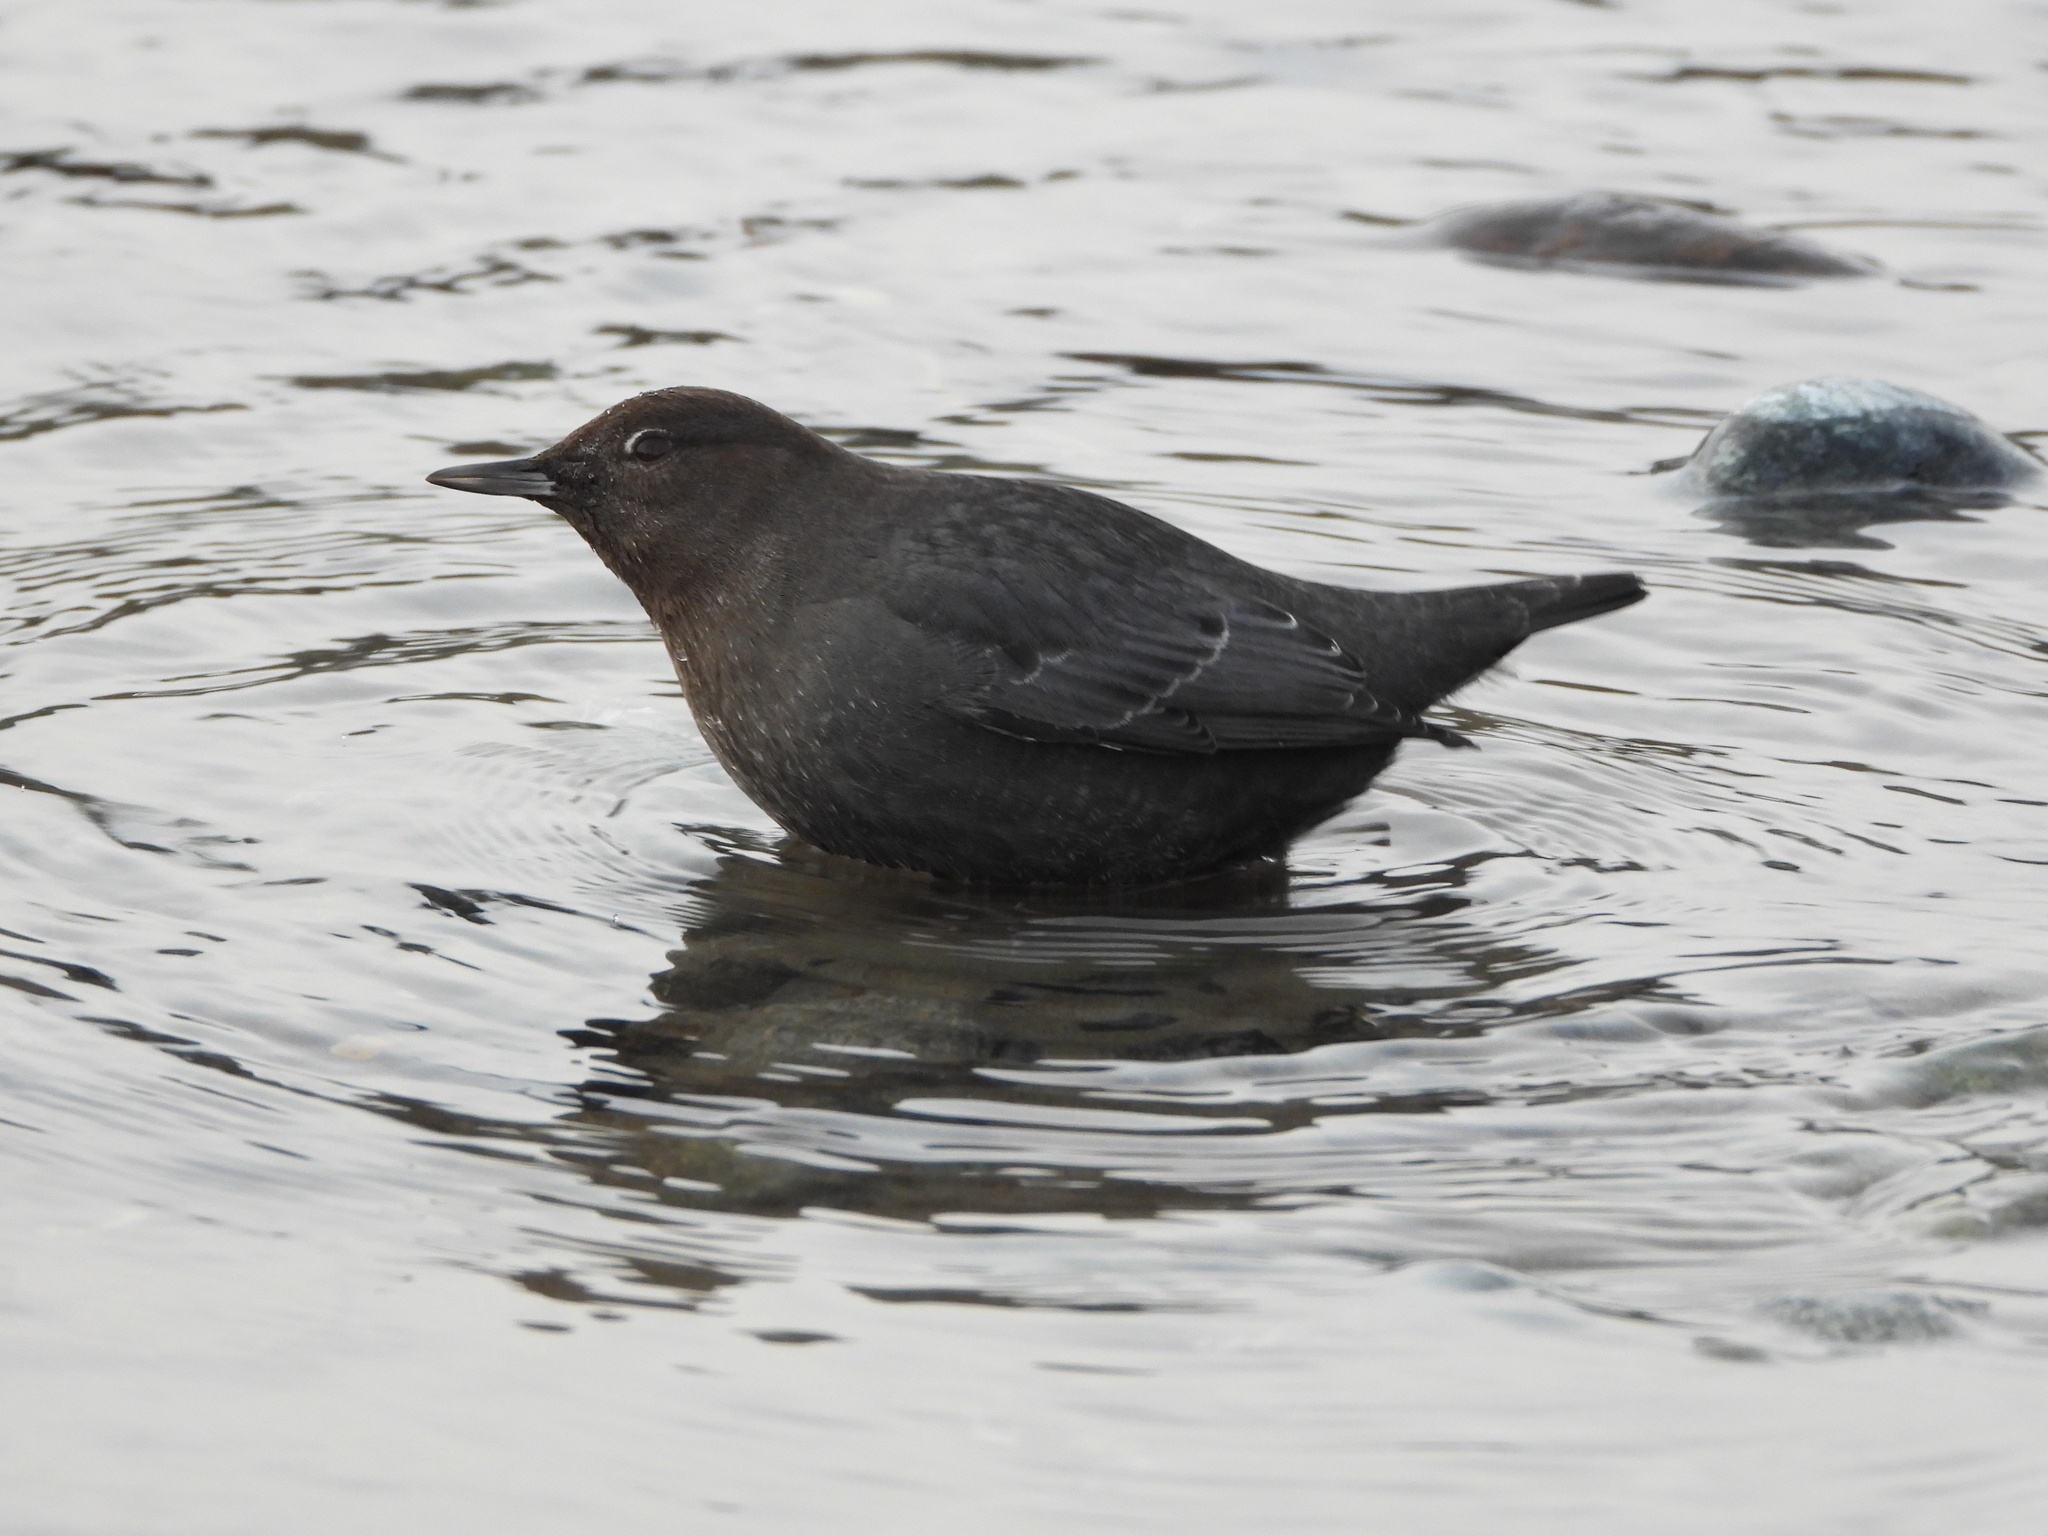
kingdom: Animalia
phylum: Chordata
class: Aves
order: Passeriformes
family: Cinclidae
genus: Cinclus
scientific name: Cinclus mexicanus
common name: American dipper
